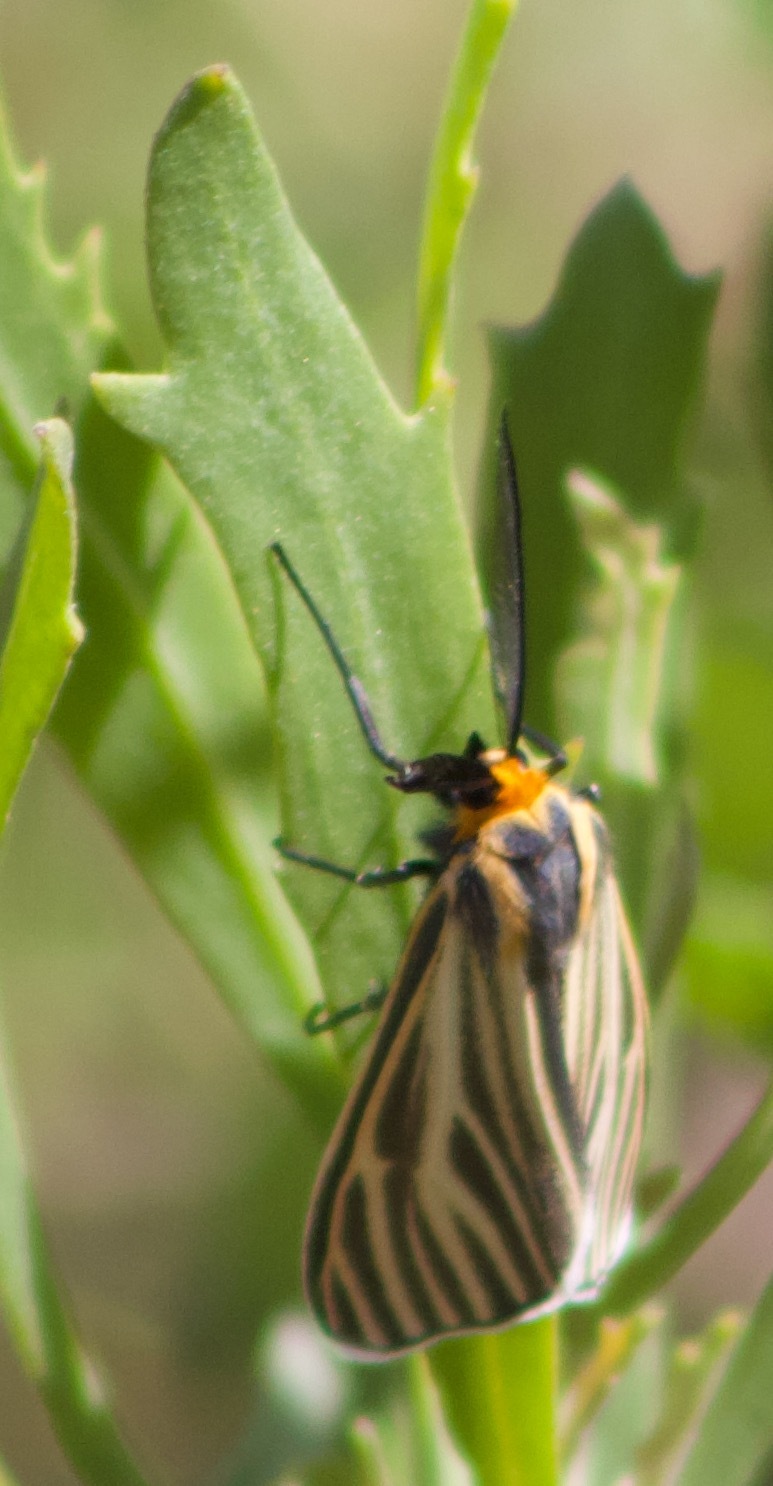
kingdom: Animalia
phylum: Arthropoda
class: Insecta
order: Lepidoptera
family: Erebidae
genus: Ctenucha
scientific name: Ctenucha vittigerum
